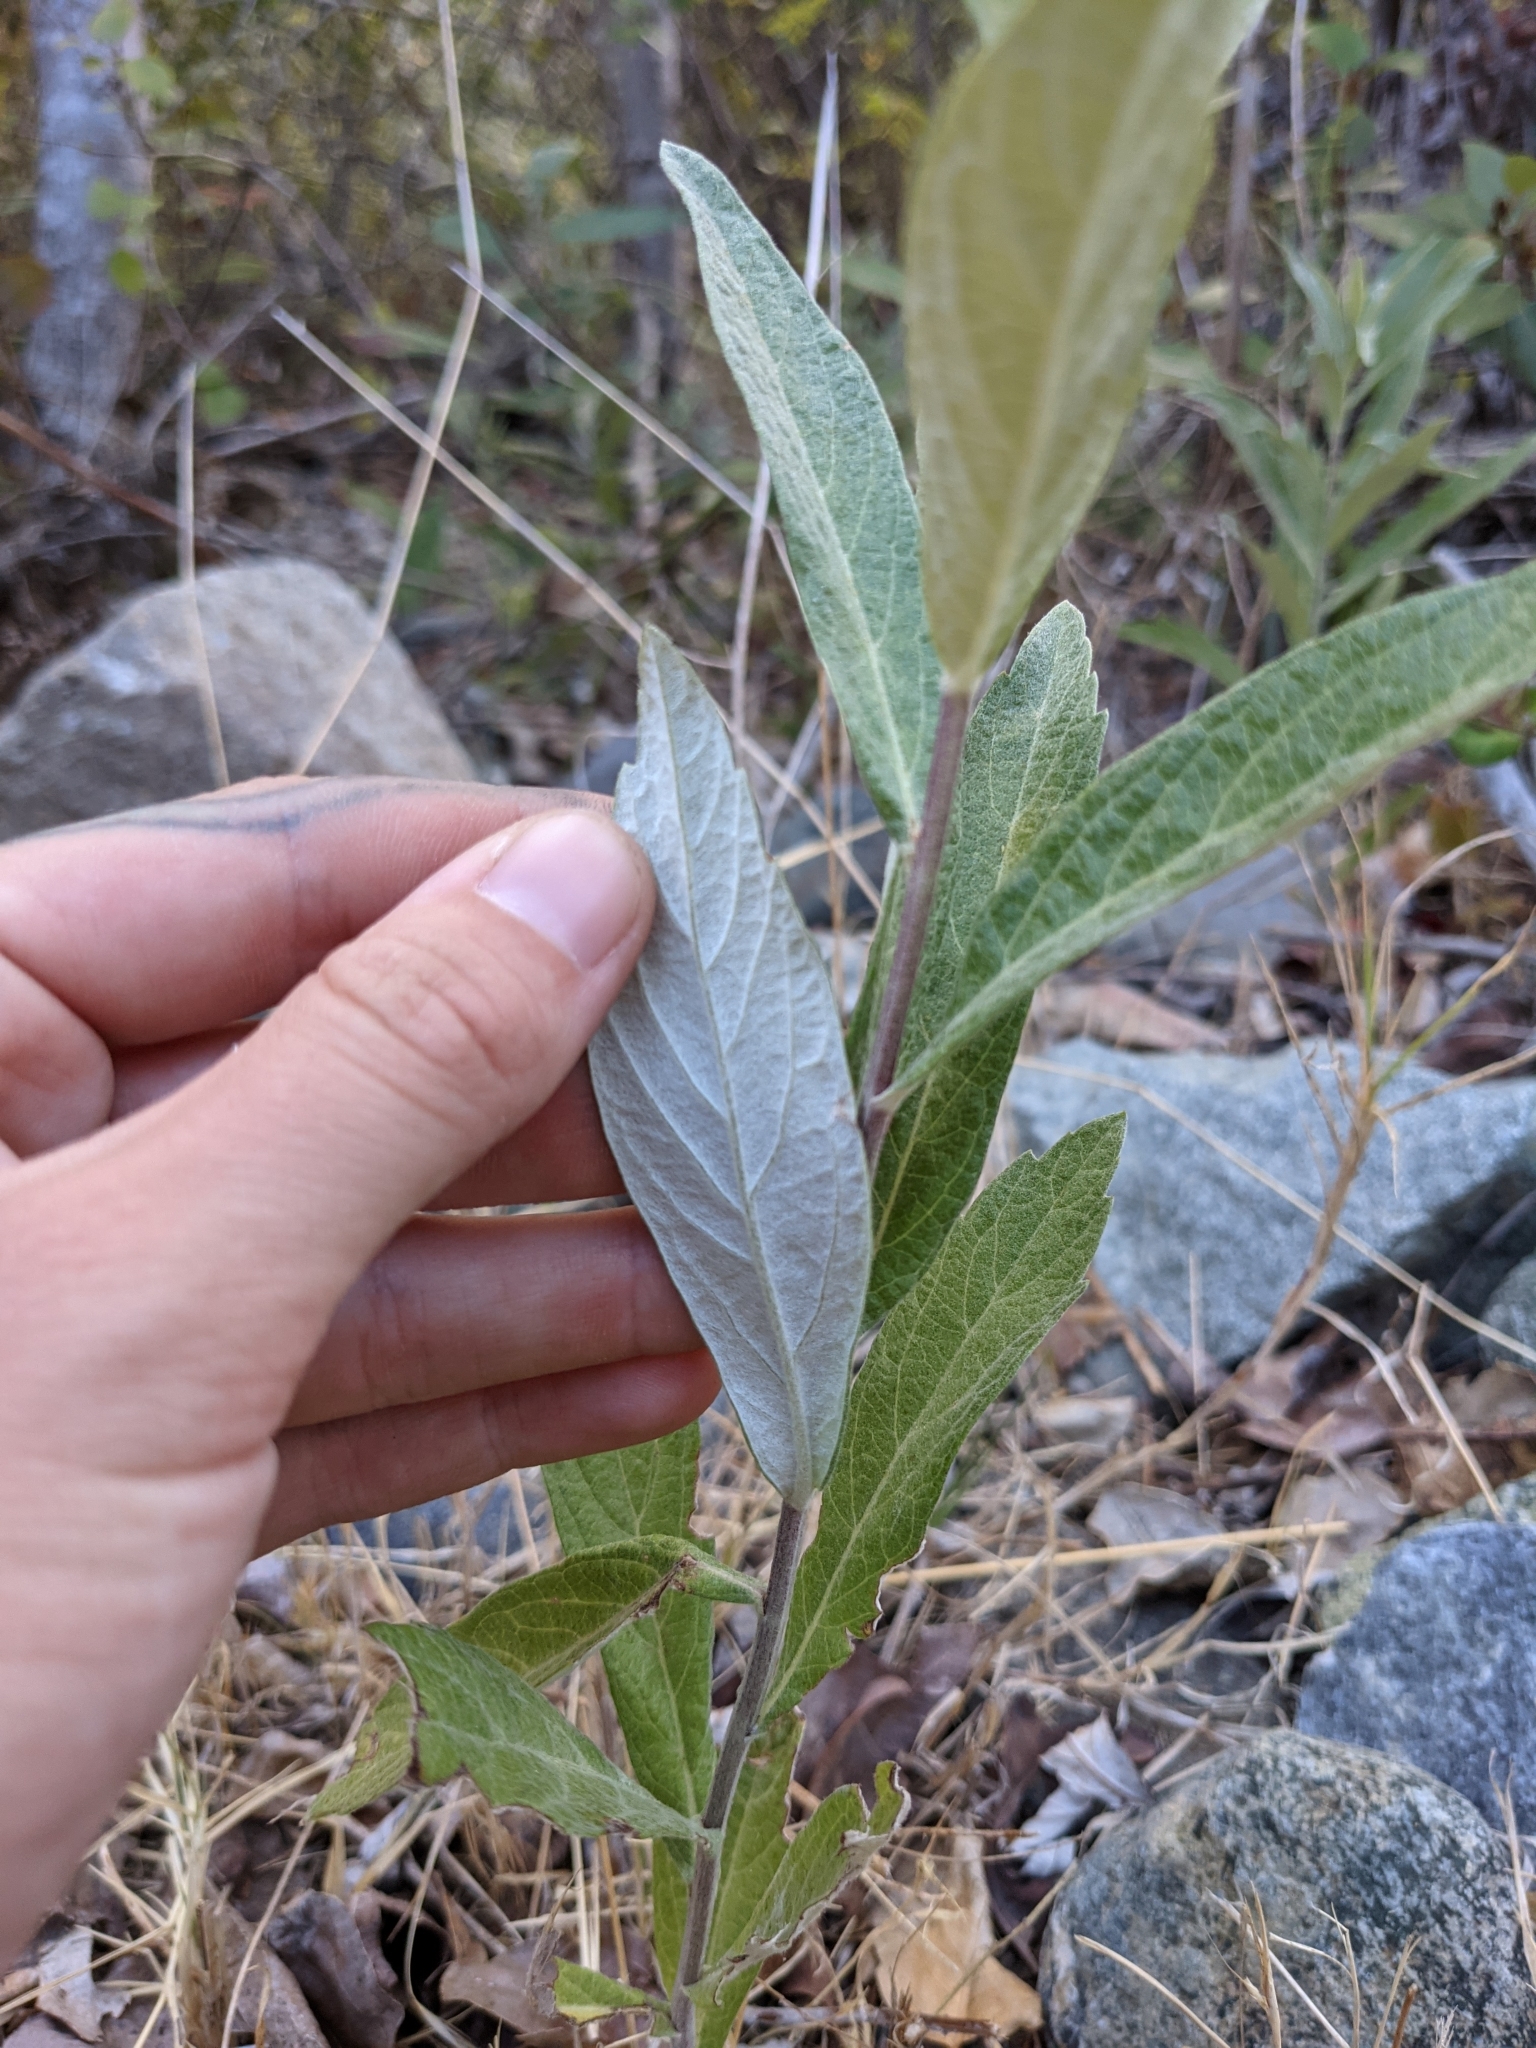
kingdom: Plantae
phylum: Tracheophyta
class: Magnoliopsida
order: Asterales
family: Asteraceae
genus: Artemisia
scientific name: Artemisia douglasiana
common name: Northwest mugwort
